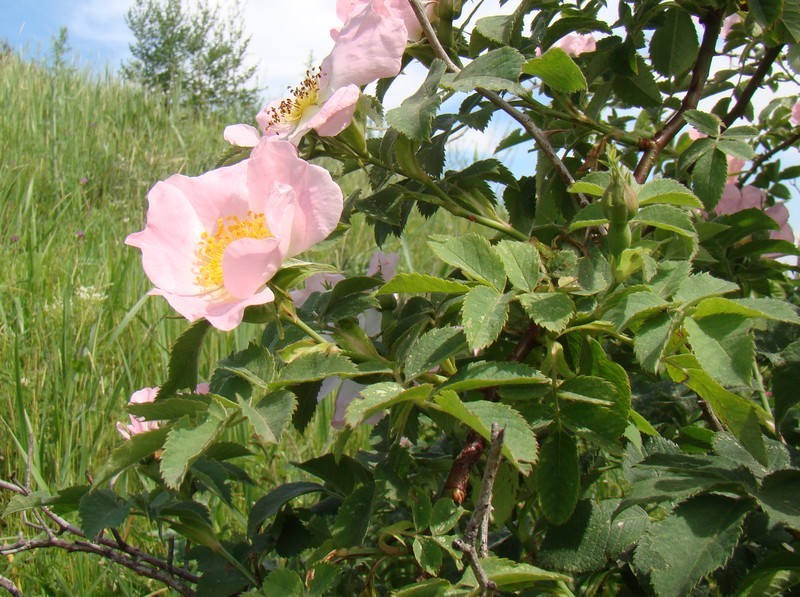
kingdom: Plantae
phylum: Tracheophyta
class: Magnoliopsida
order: Rosales
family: Rosaceae
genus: Rosa
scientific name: Rosa corymbifera
